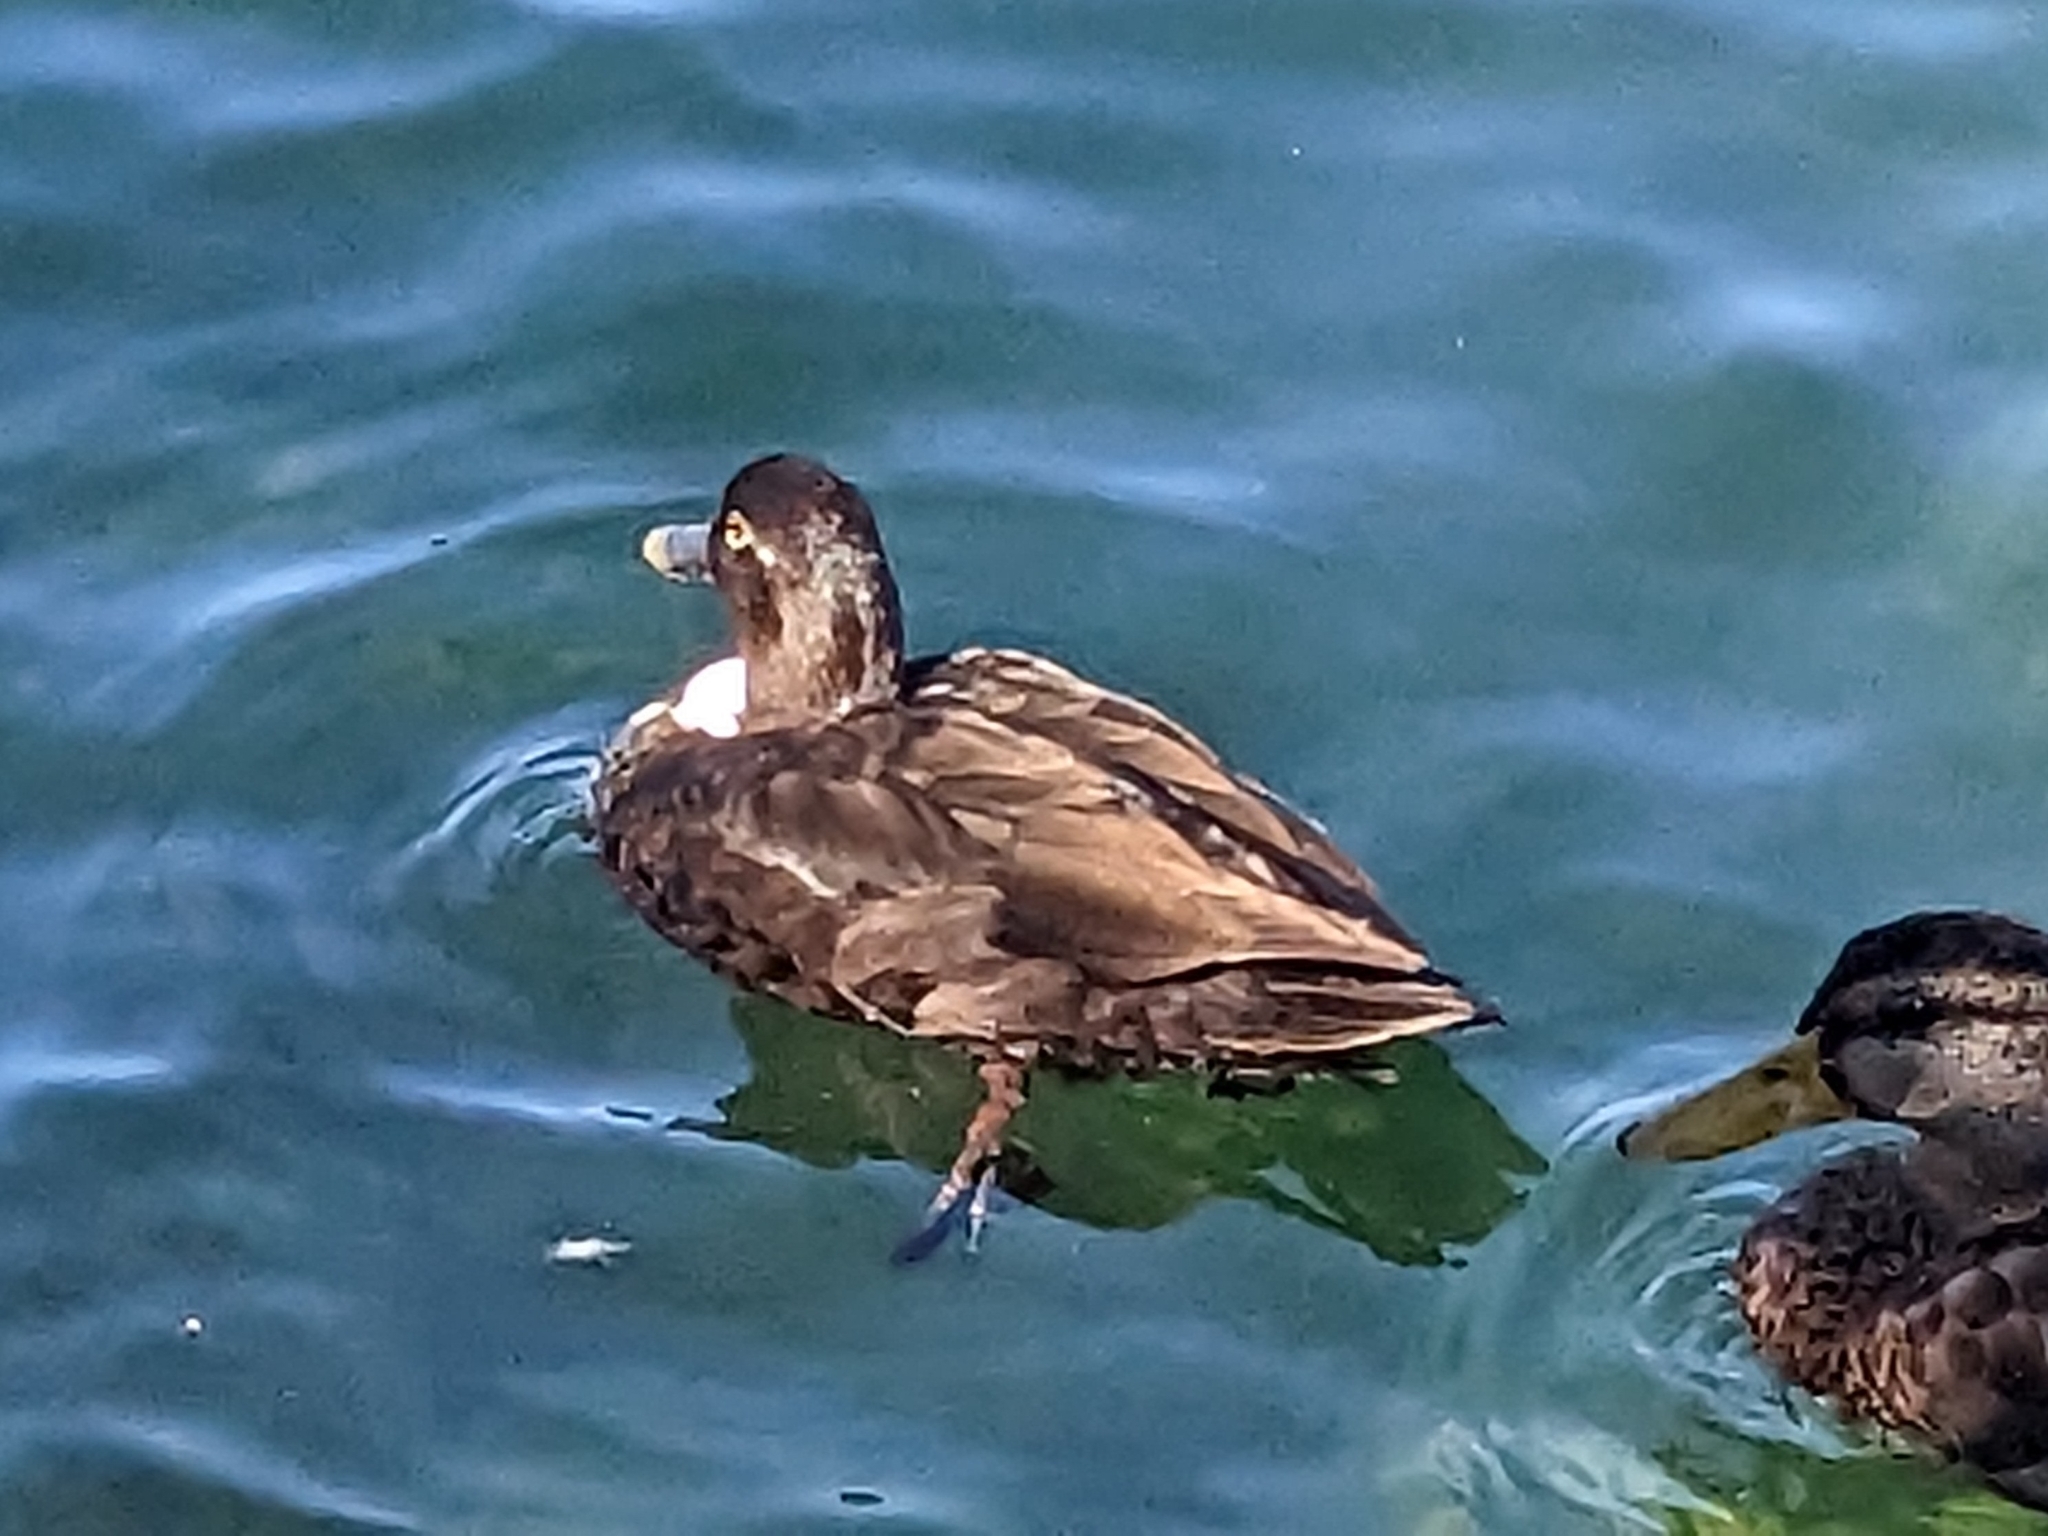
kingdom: Animalia
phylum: Chordata
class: Aves
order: Anseriformes
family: Anatidae
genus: Anas
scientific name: Anas platyrhynchos
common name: Mallard
